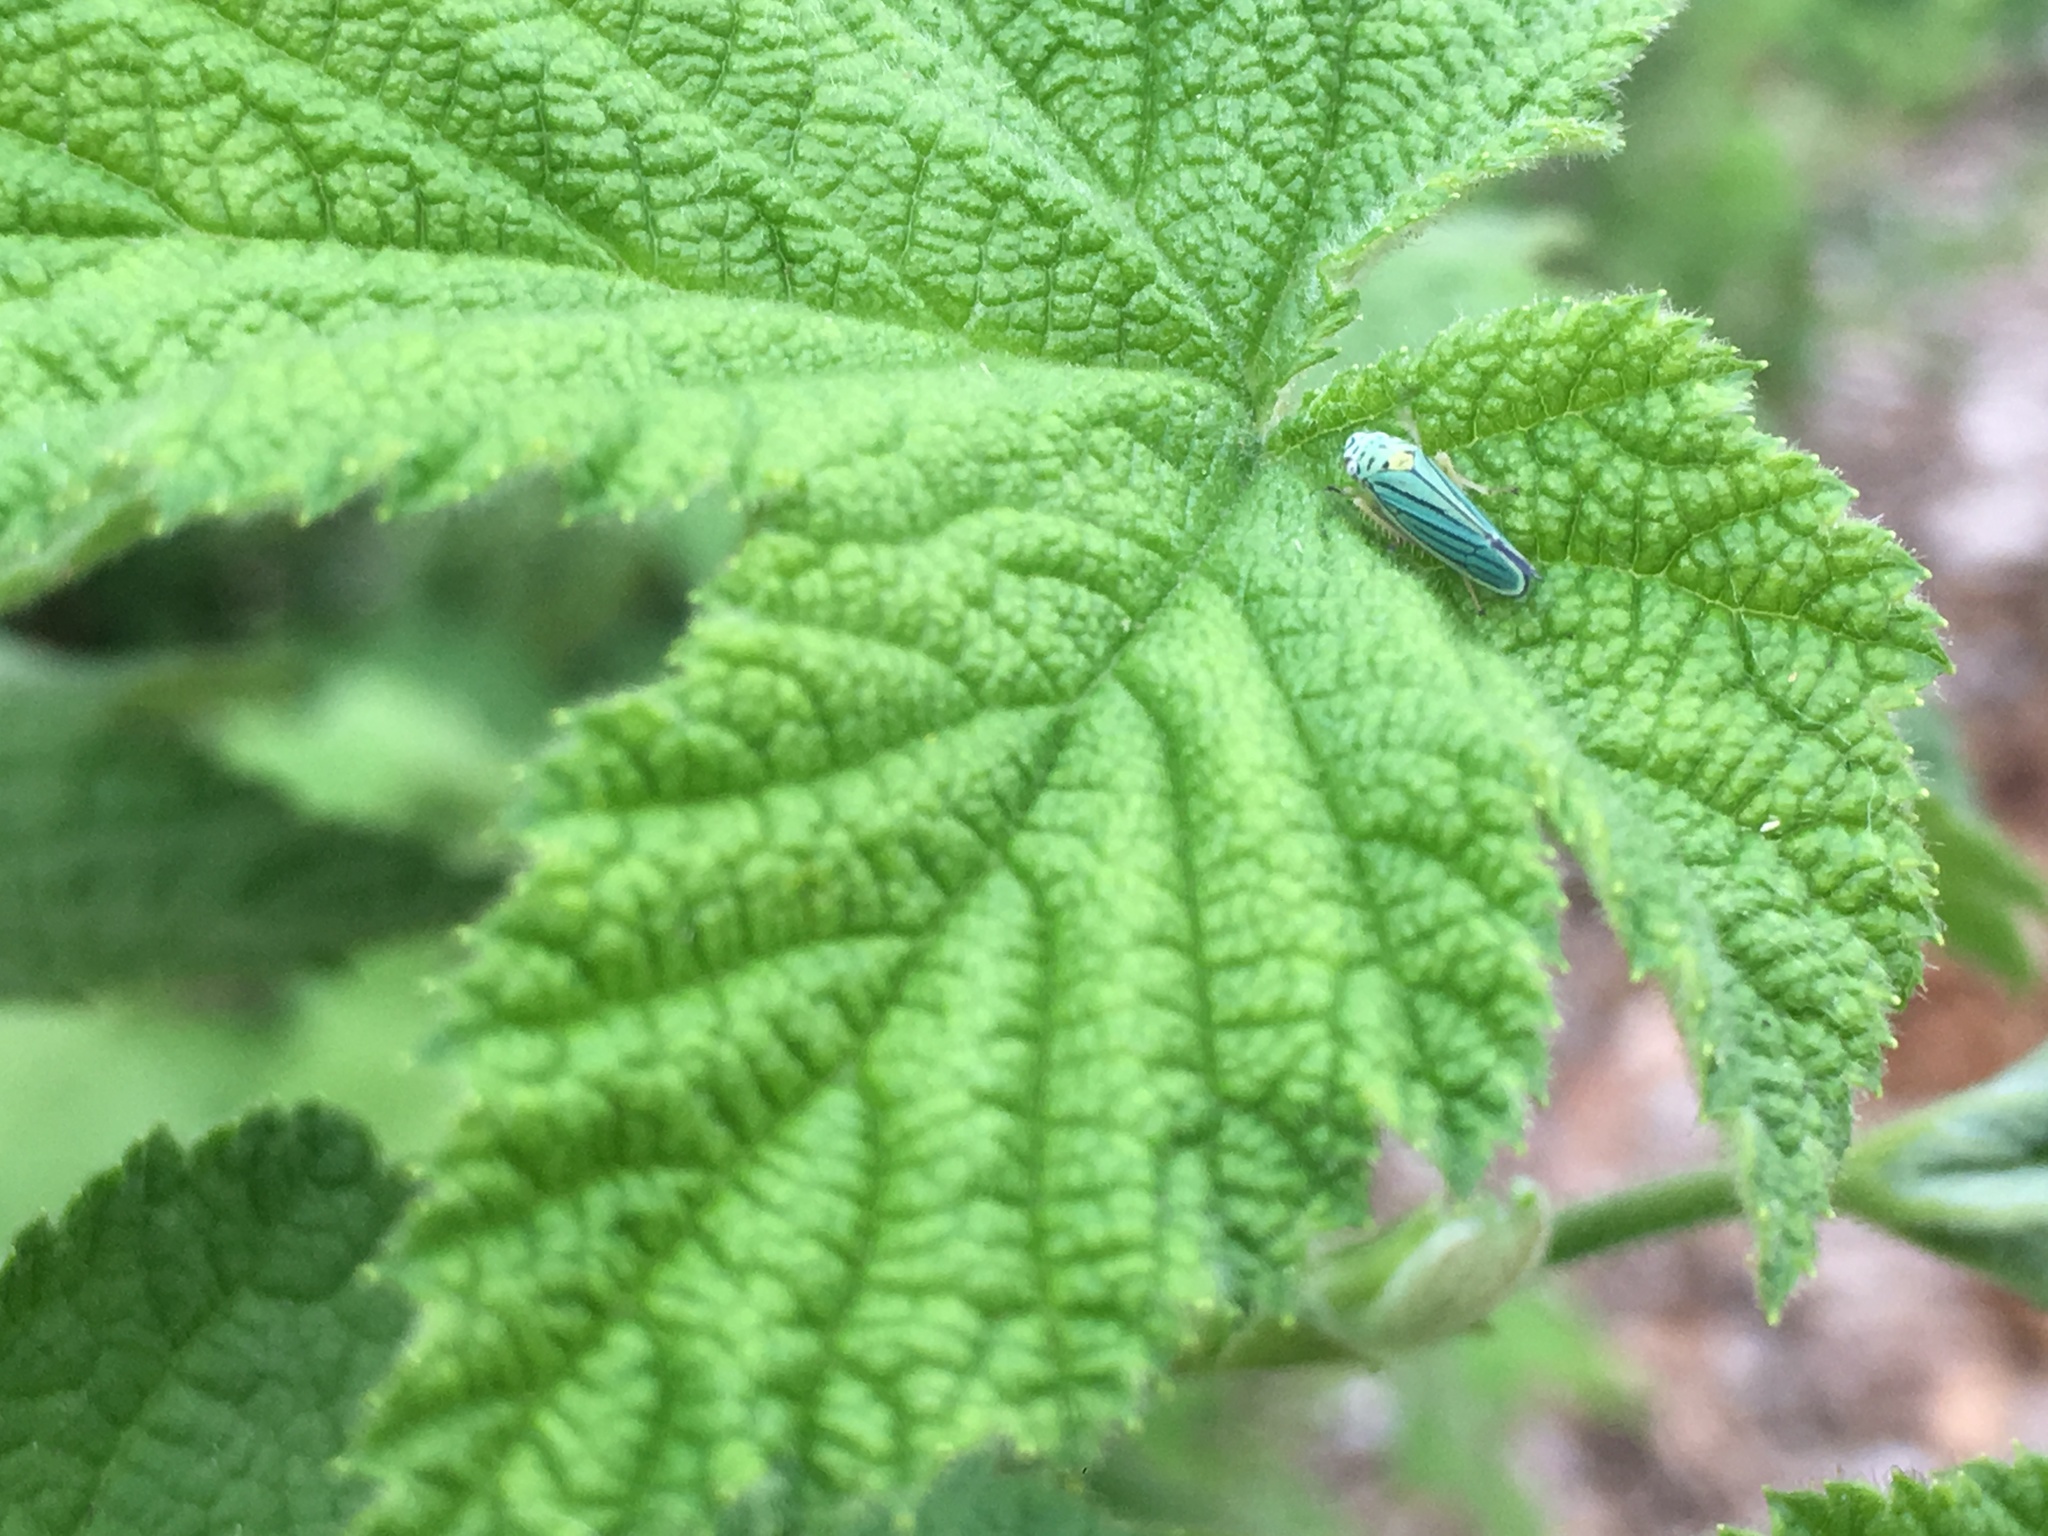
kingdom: Animalia
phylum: Arthropoda
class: Insecta
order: Hemiptera
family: Cicadellidae
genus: Graphocephala
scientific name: Graphocephala atropunctata
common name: Blue-green sharpshooter
